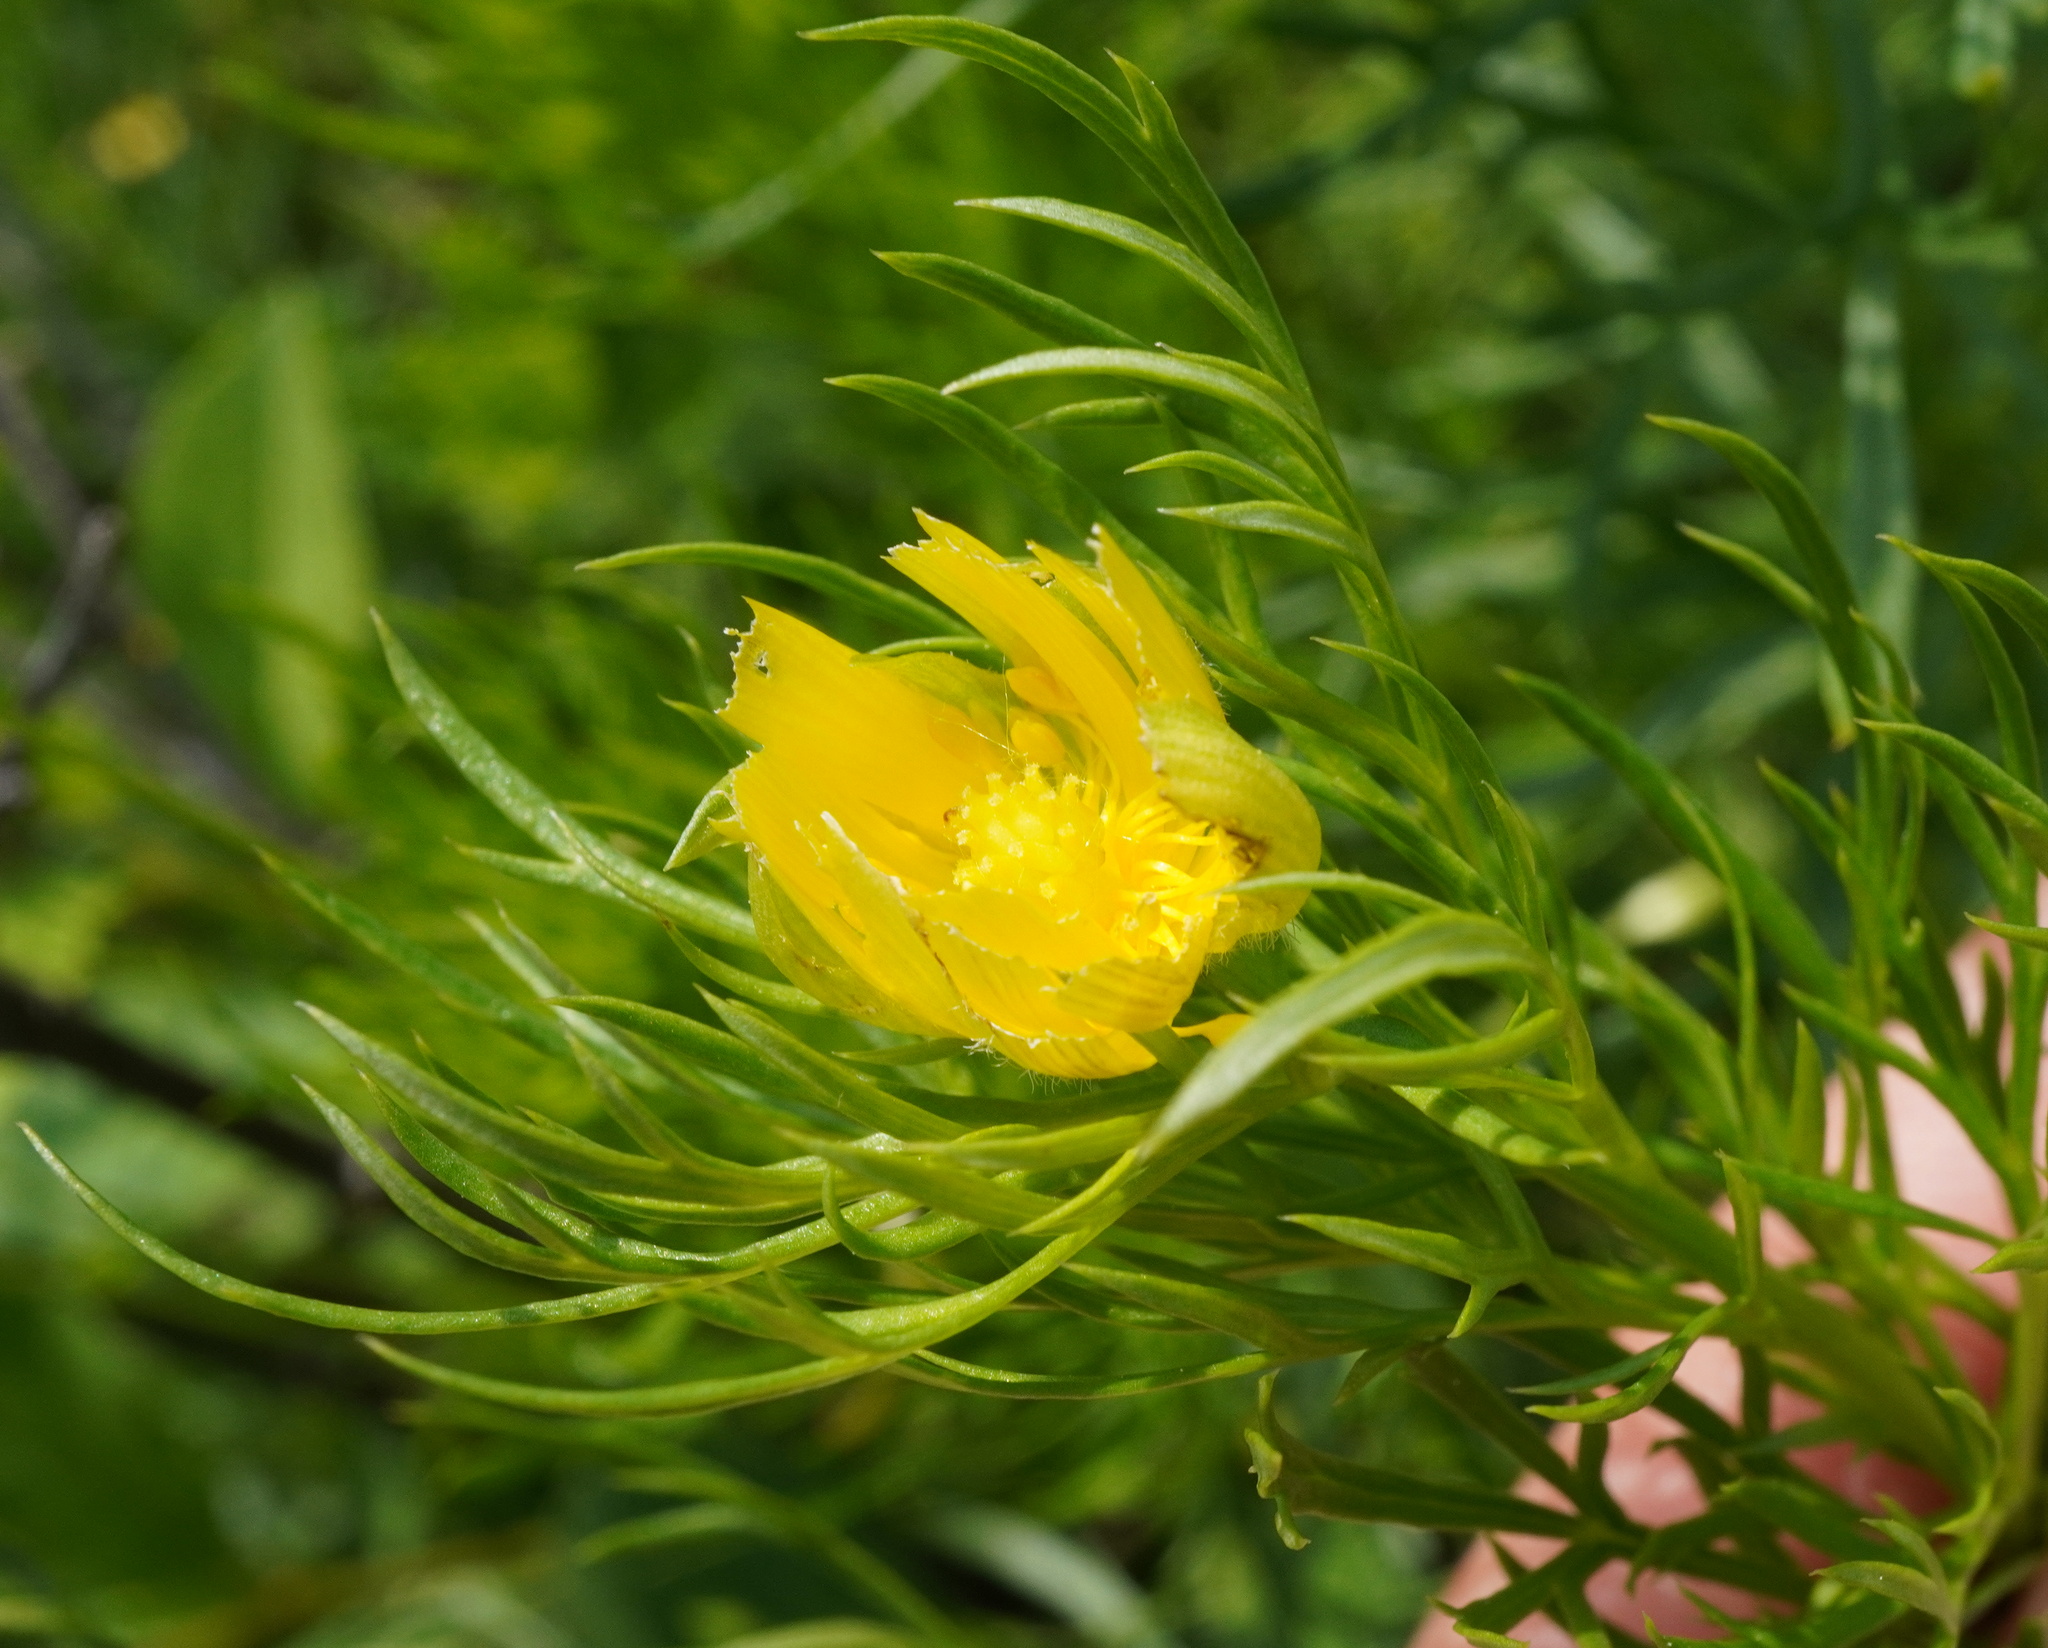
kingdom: Plantae
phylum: Tracheophyta
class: Magnoliopsida
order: Ranunculales
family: Ranunculaceae
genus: Adonis
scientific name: Adonis vernalis
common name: Yellow pheasants-eye
